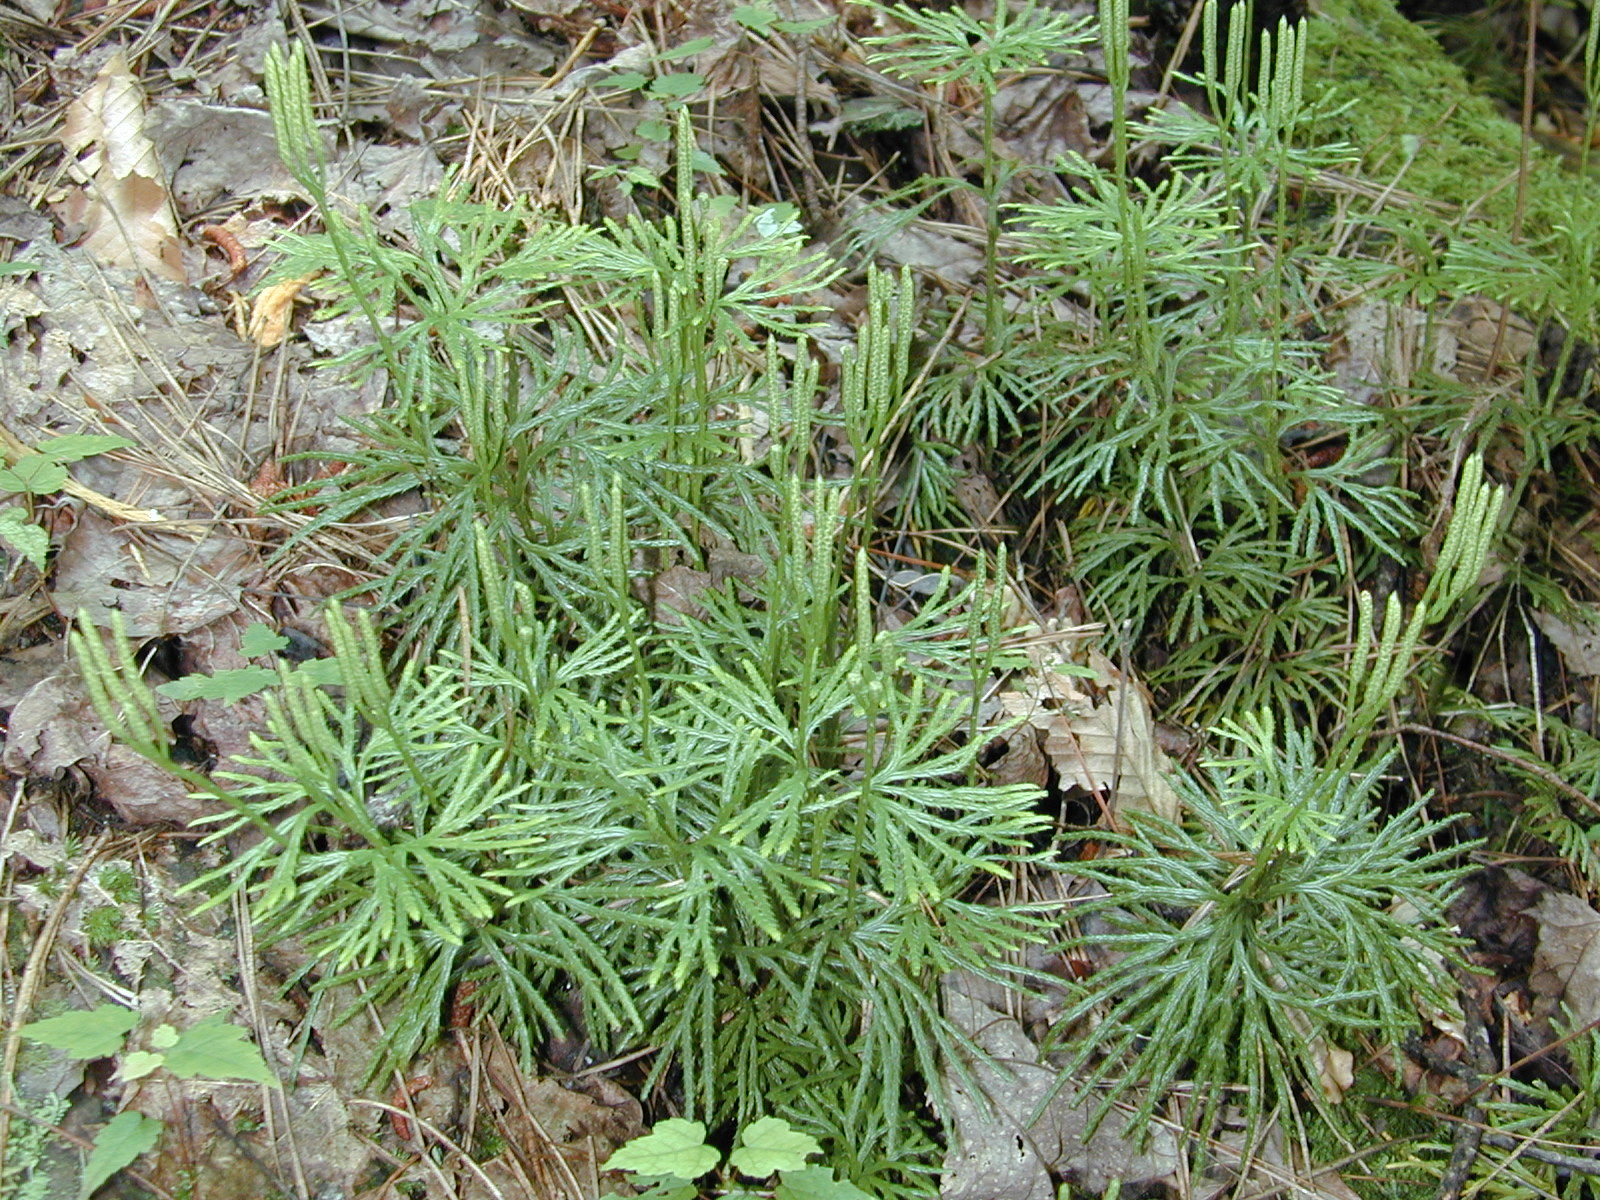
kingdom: Plantae
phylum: Tracheophyta
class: Lycopodiopsida
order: Lycopodiales
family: Lycopodiaceae
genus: Diphasiastrum
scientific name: Diphasiastrum digitatum
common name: Southern running-pine
